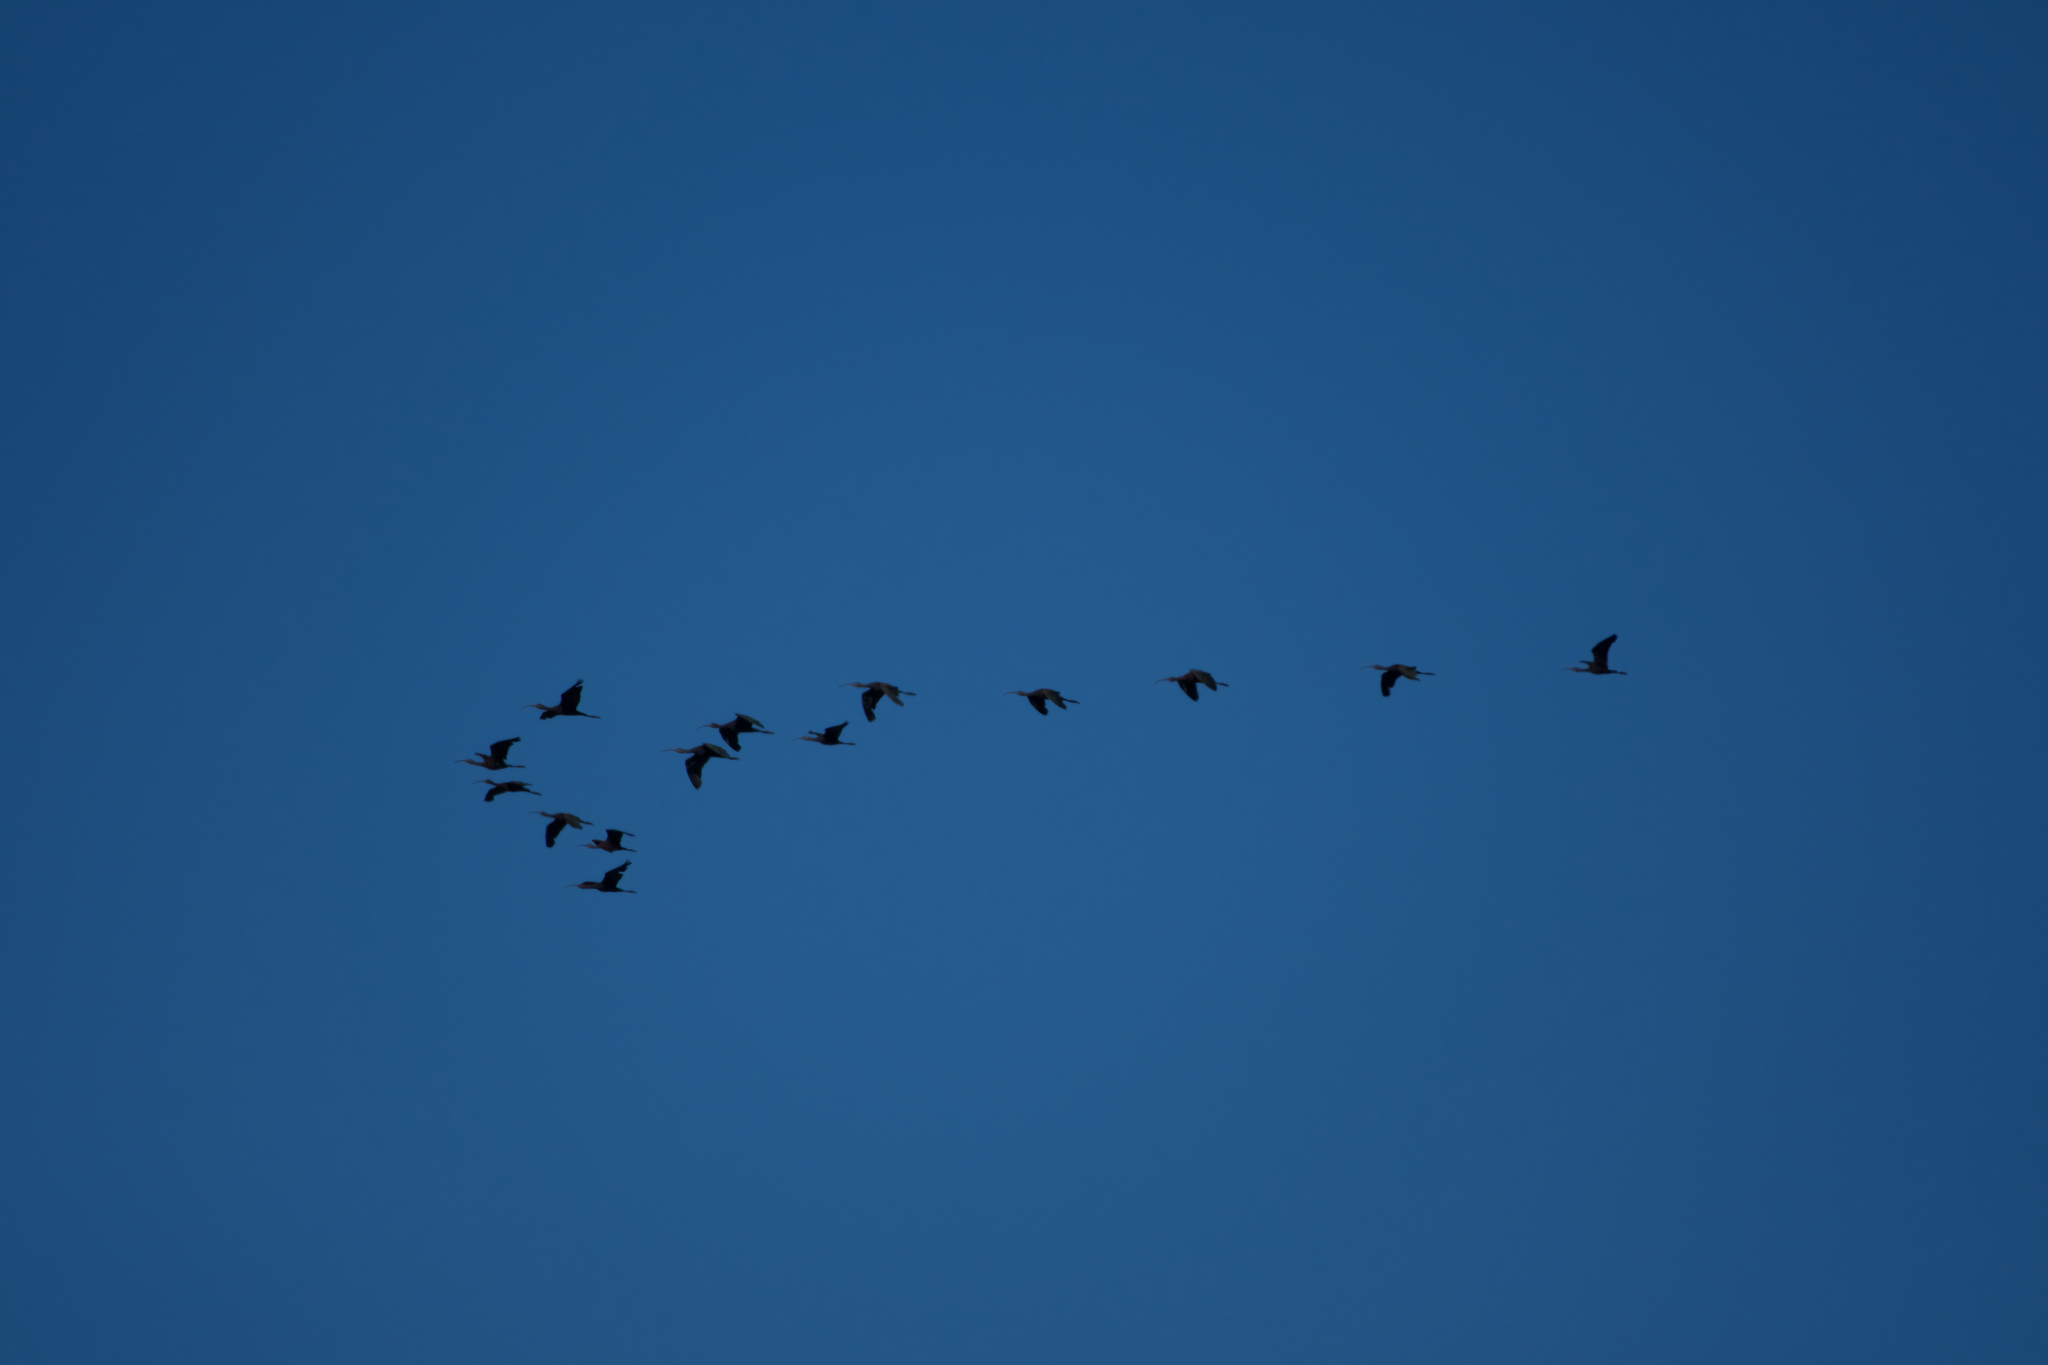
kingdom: Animalia
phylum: Chordata
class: Aves
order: Pelecaniformes
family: Threskiornithidae
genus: Plegadis
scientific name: Plegadis chihi
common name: White-faced ibis
